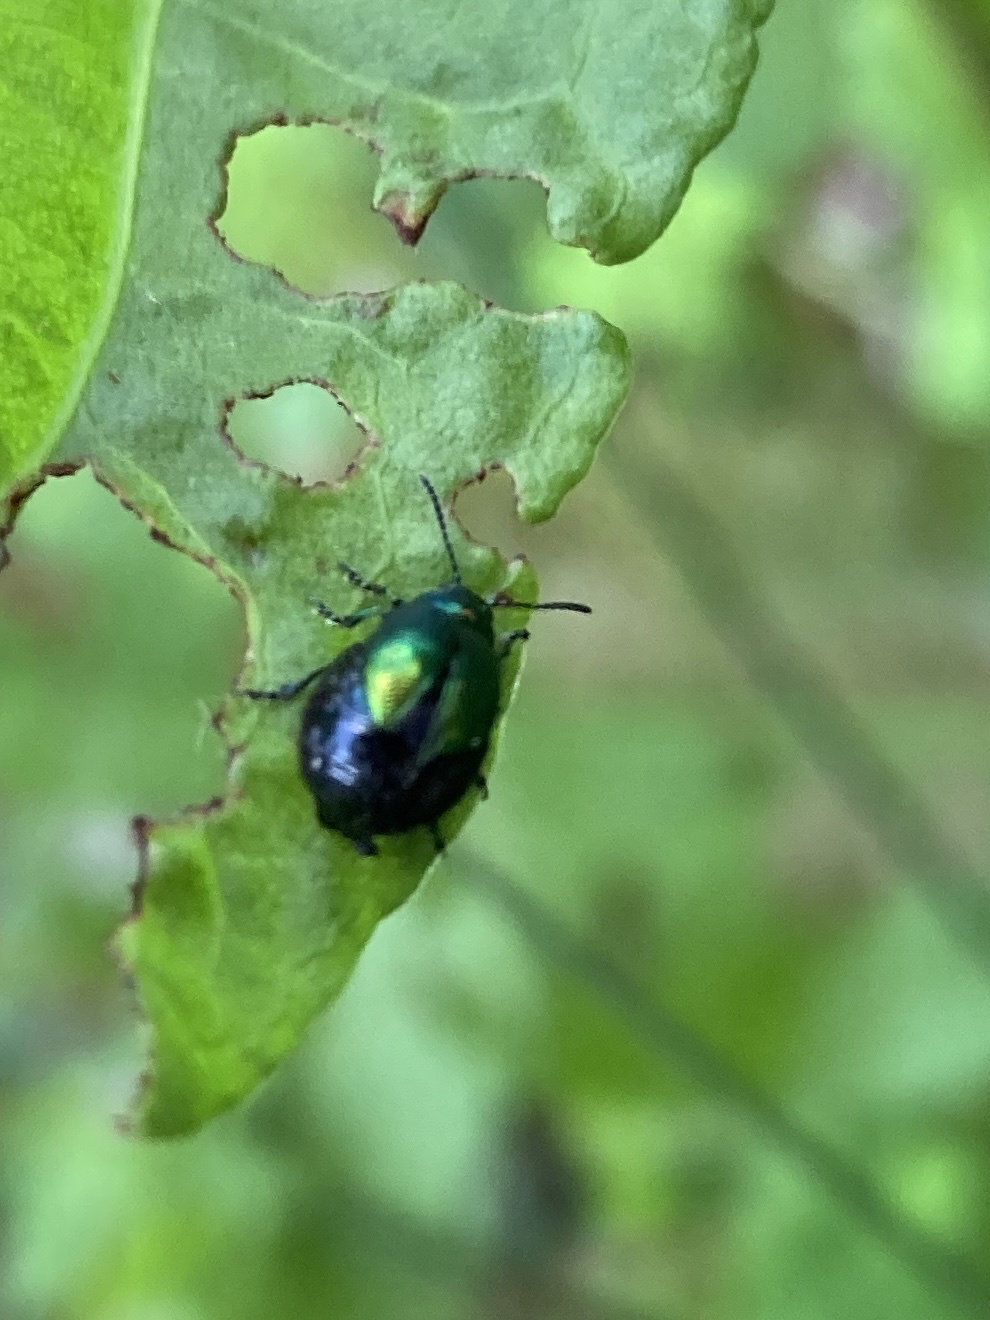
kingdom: Animalia
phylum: Arthropoda
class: Insecta
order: Coleoptera
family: Chrysomelidae
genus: Gastrophysa
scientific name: Gastrophysa viridula
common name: Green dock beetle
